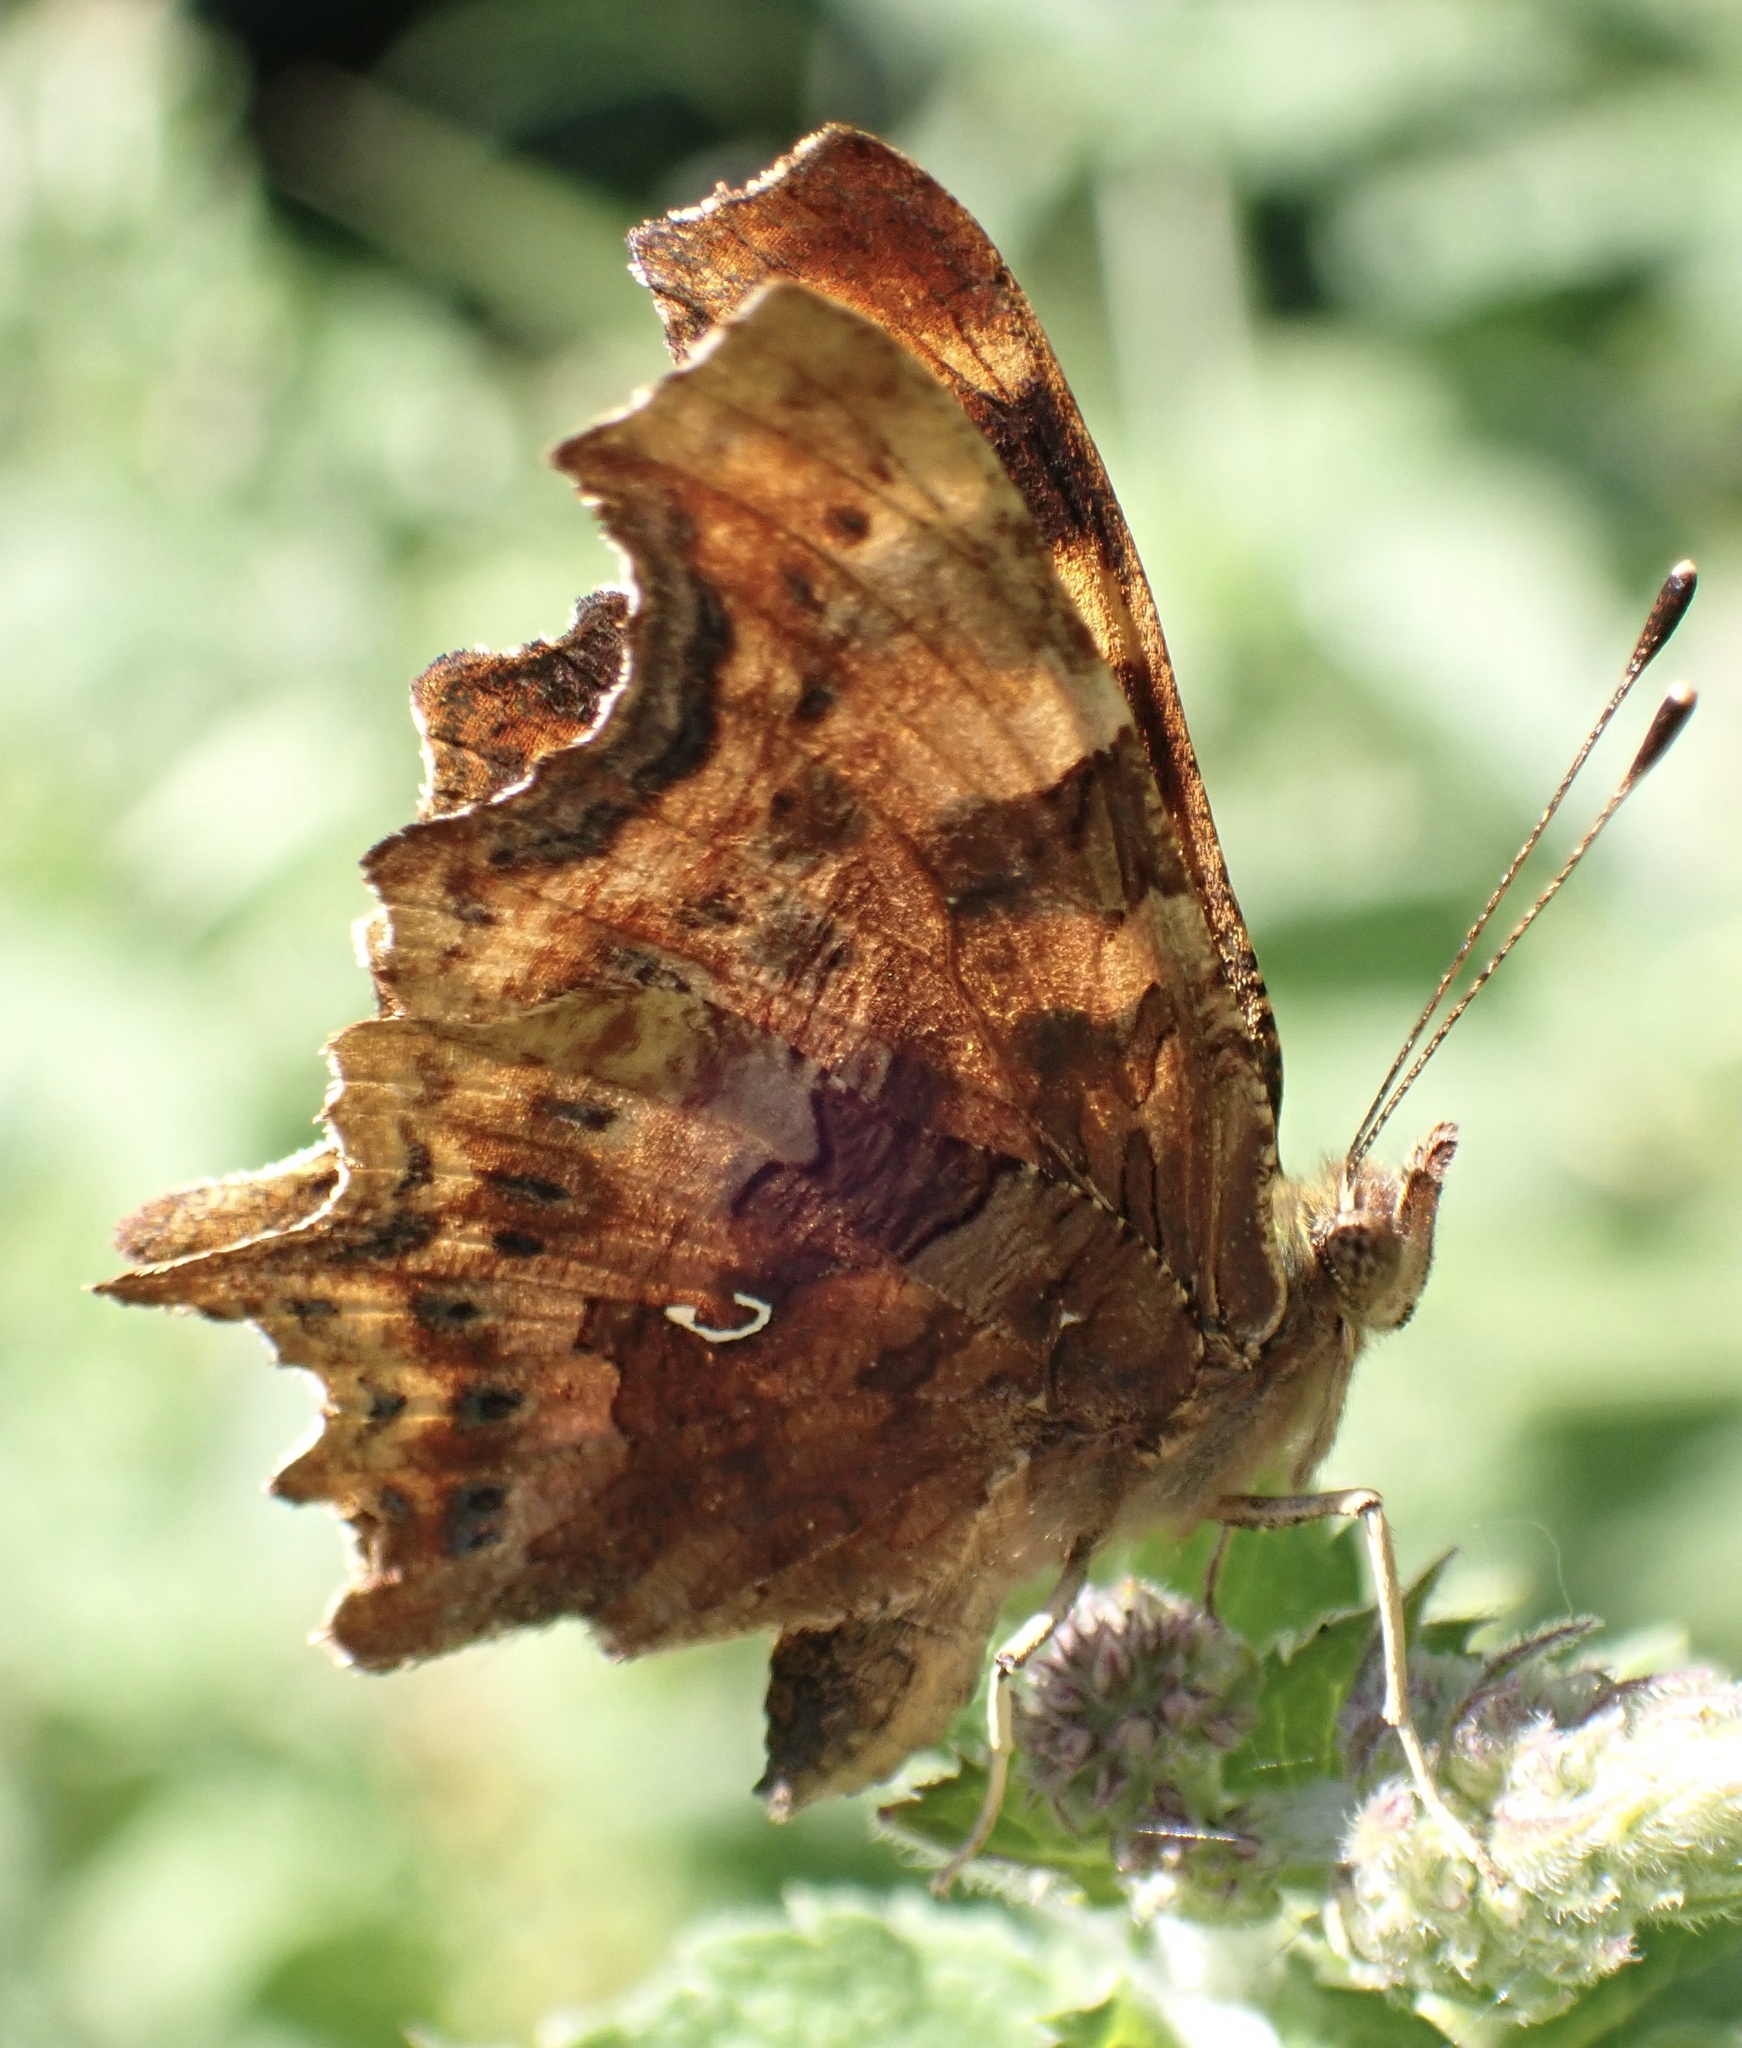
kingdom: Animalia
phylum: Arthropoda
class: Insecta
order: Lepidoptera
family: Nymphalidae
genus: Polygonia
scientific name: Polygonia c-album
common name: Comma
